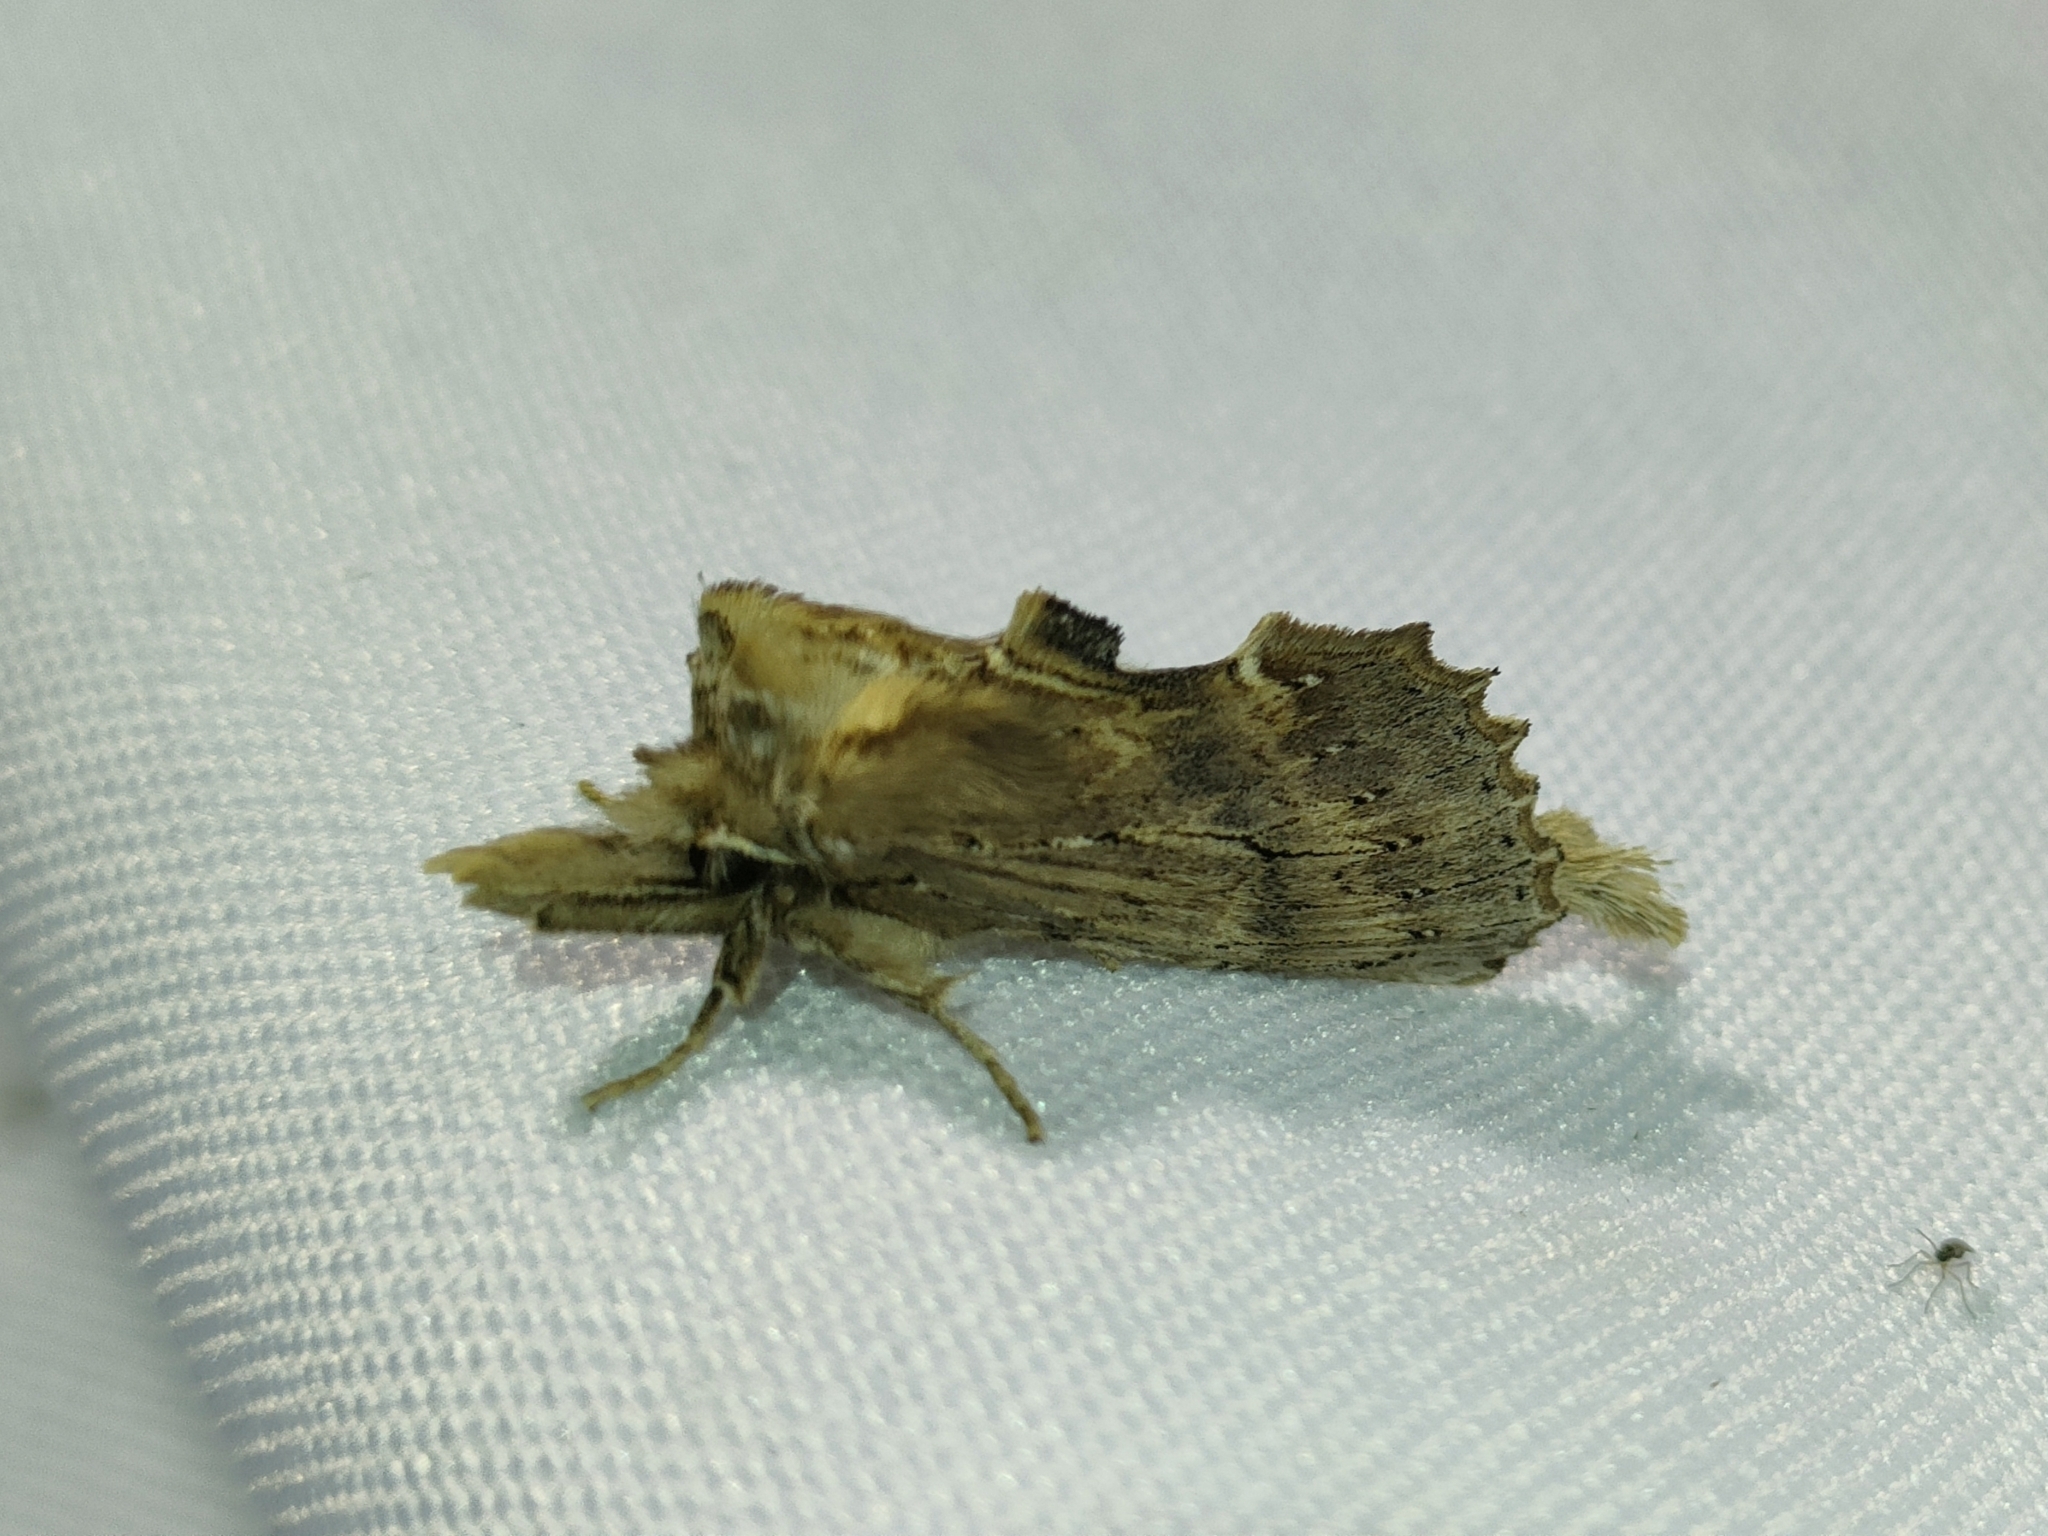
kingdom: Animalia
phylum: Arthropoda
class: Insecta
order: Lepidoptera
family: Notodontidae
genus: Pterostoma
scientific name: Pterostoma palpina
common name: Pale prominent
